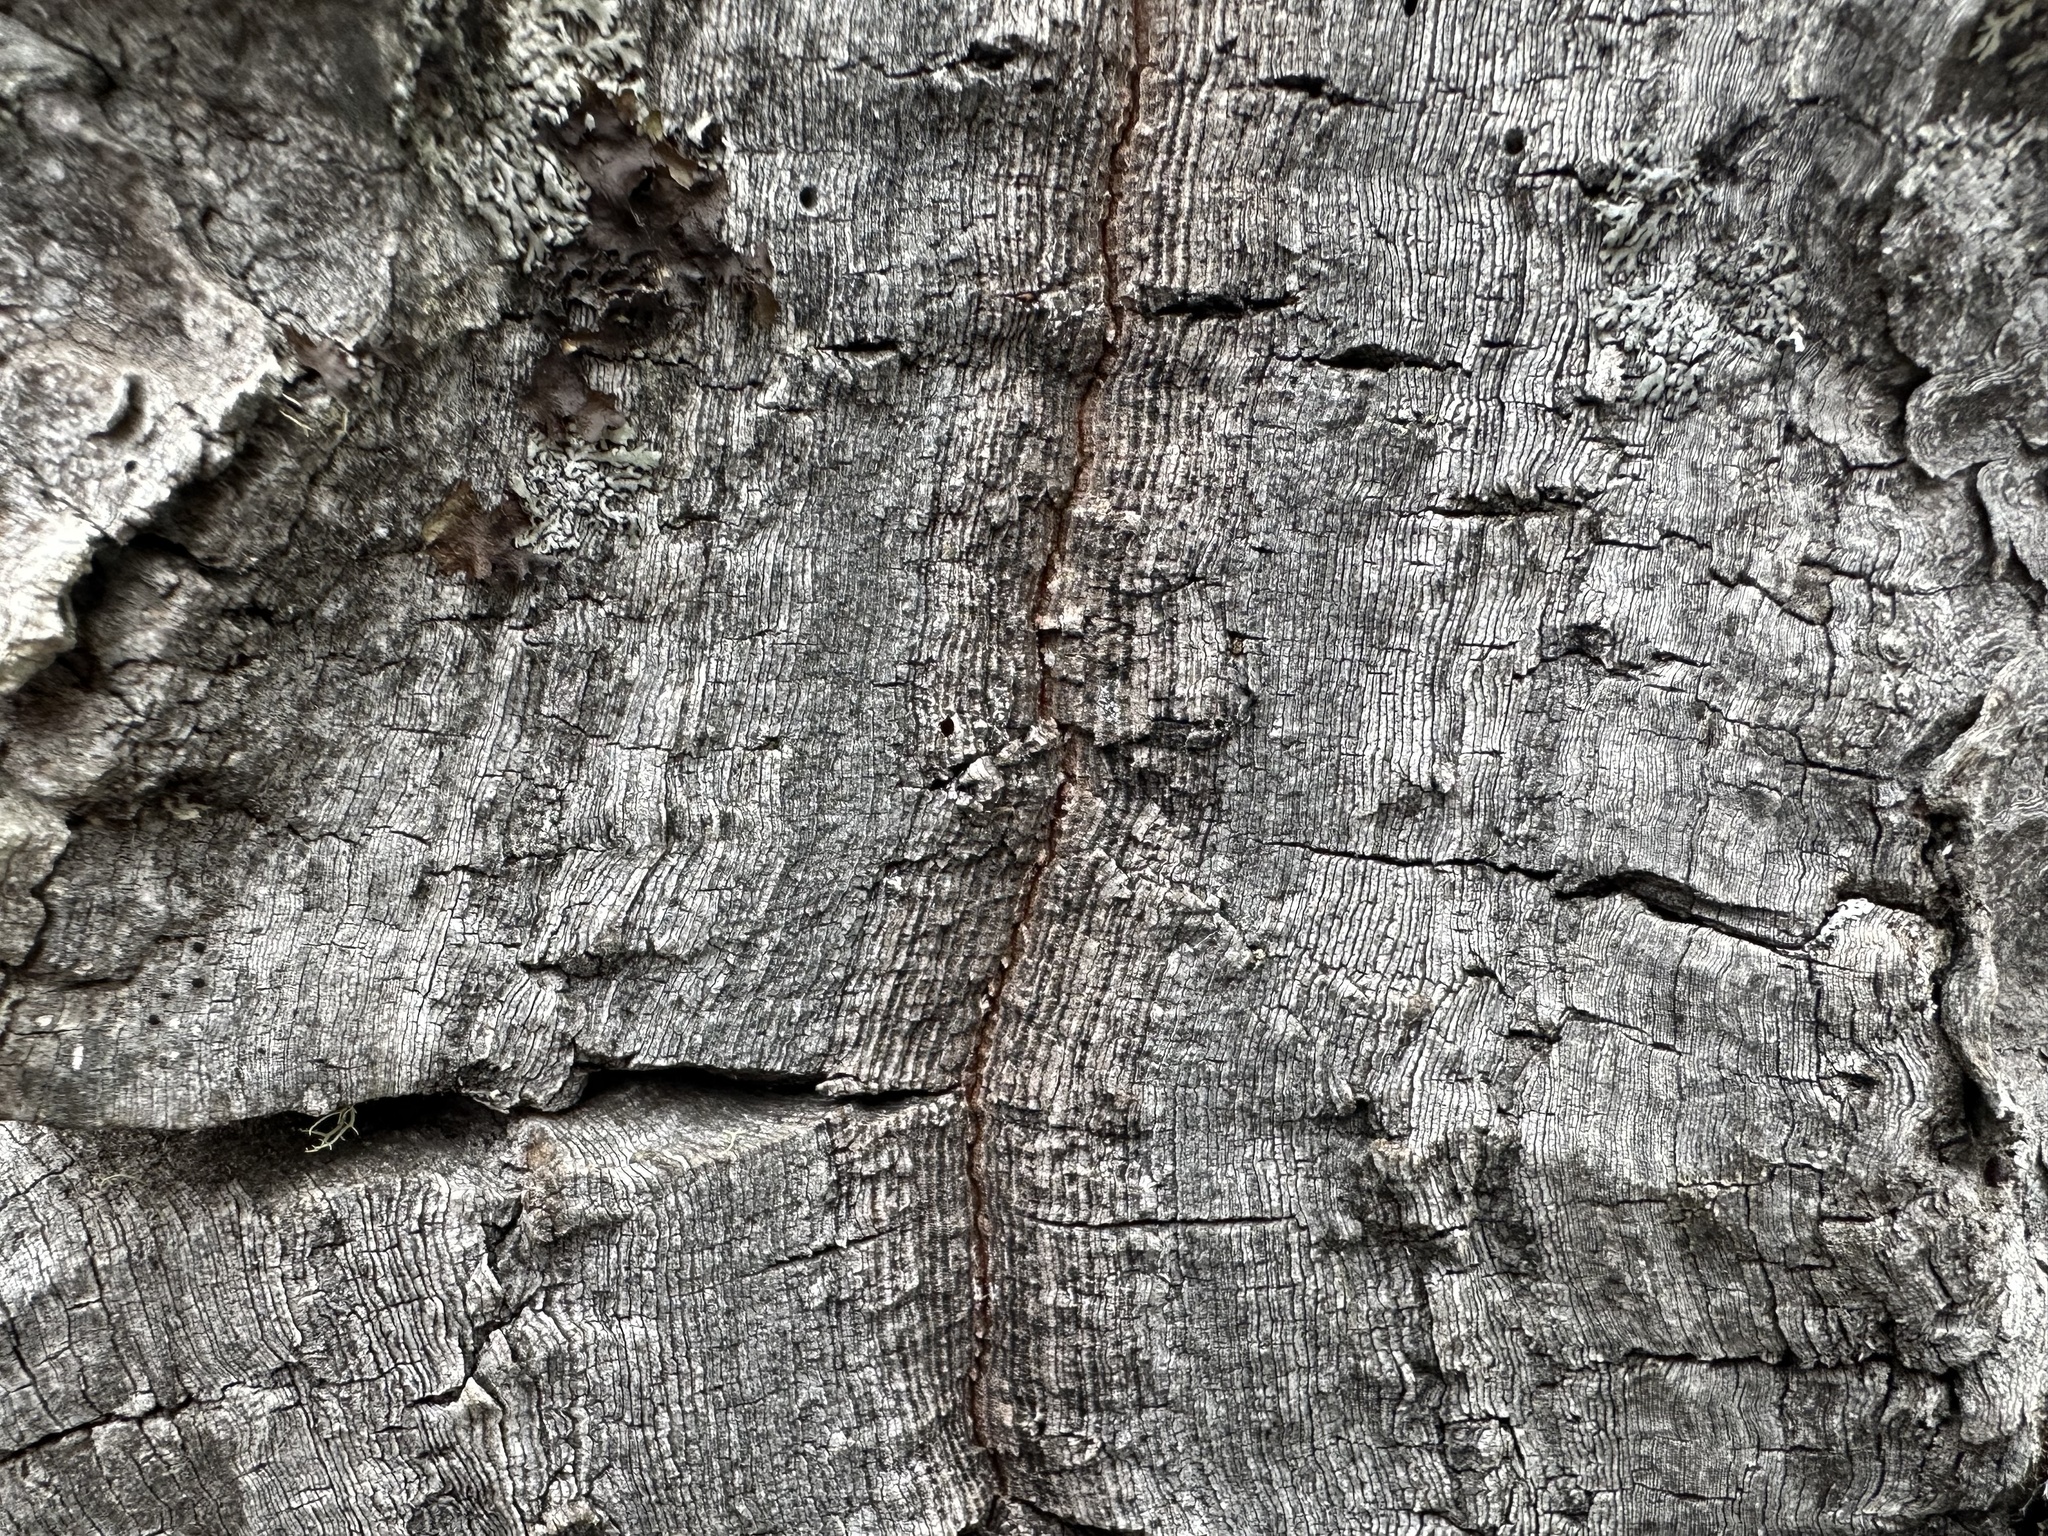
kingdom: Plantae
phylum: Tracheophyta
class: Pinopsida
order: Pinales
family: Araucariaceae
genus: Araucaria
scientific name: Araucaria araucana
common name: Monkey-puzzle
